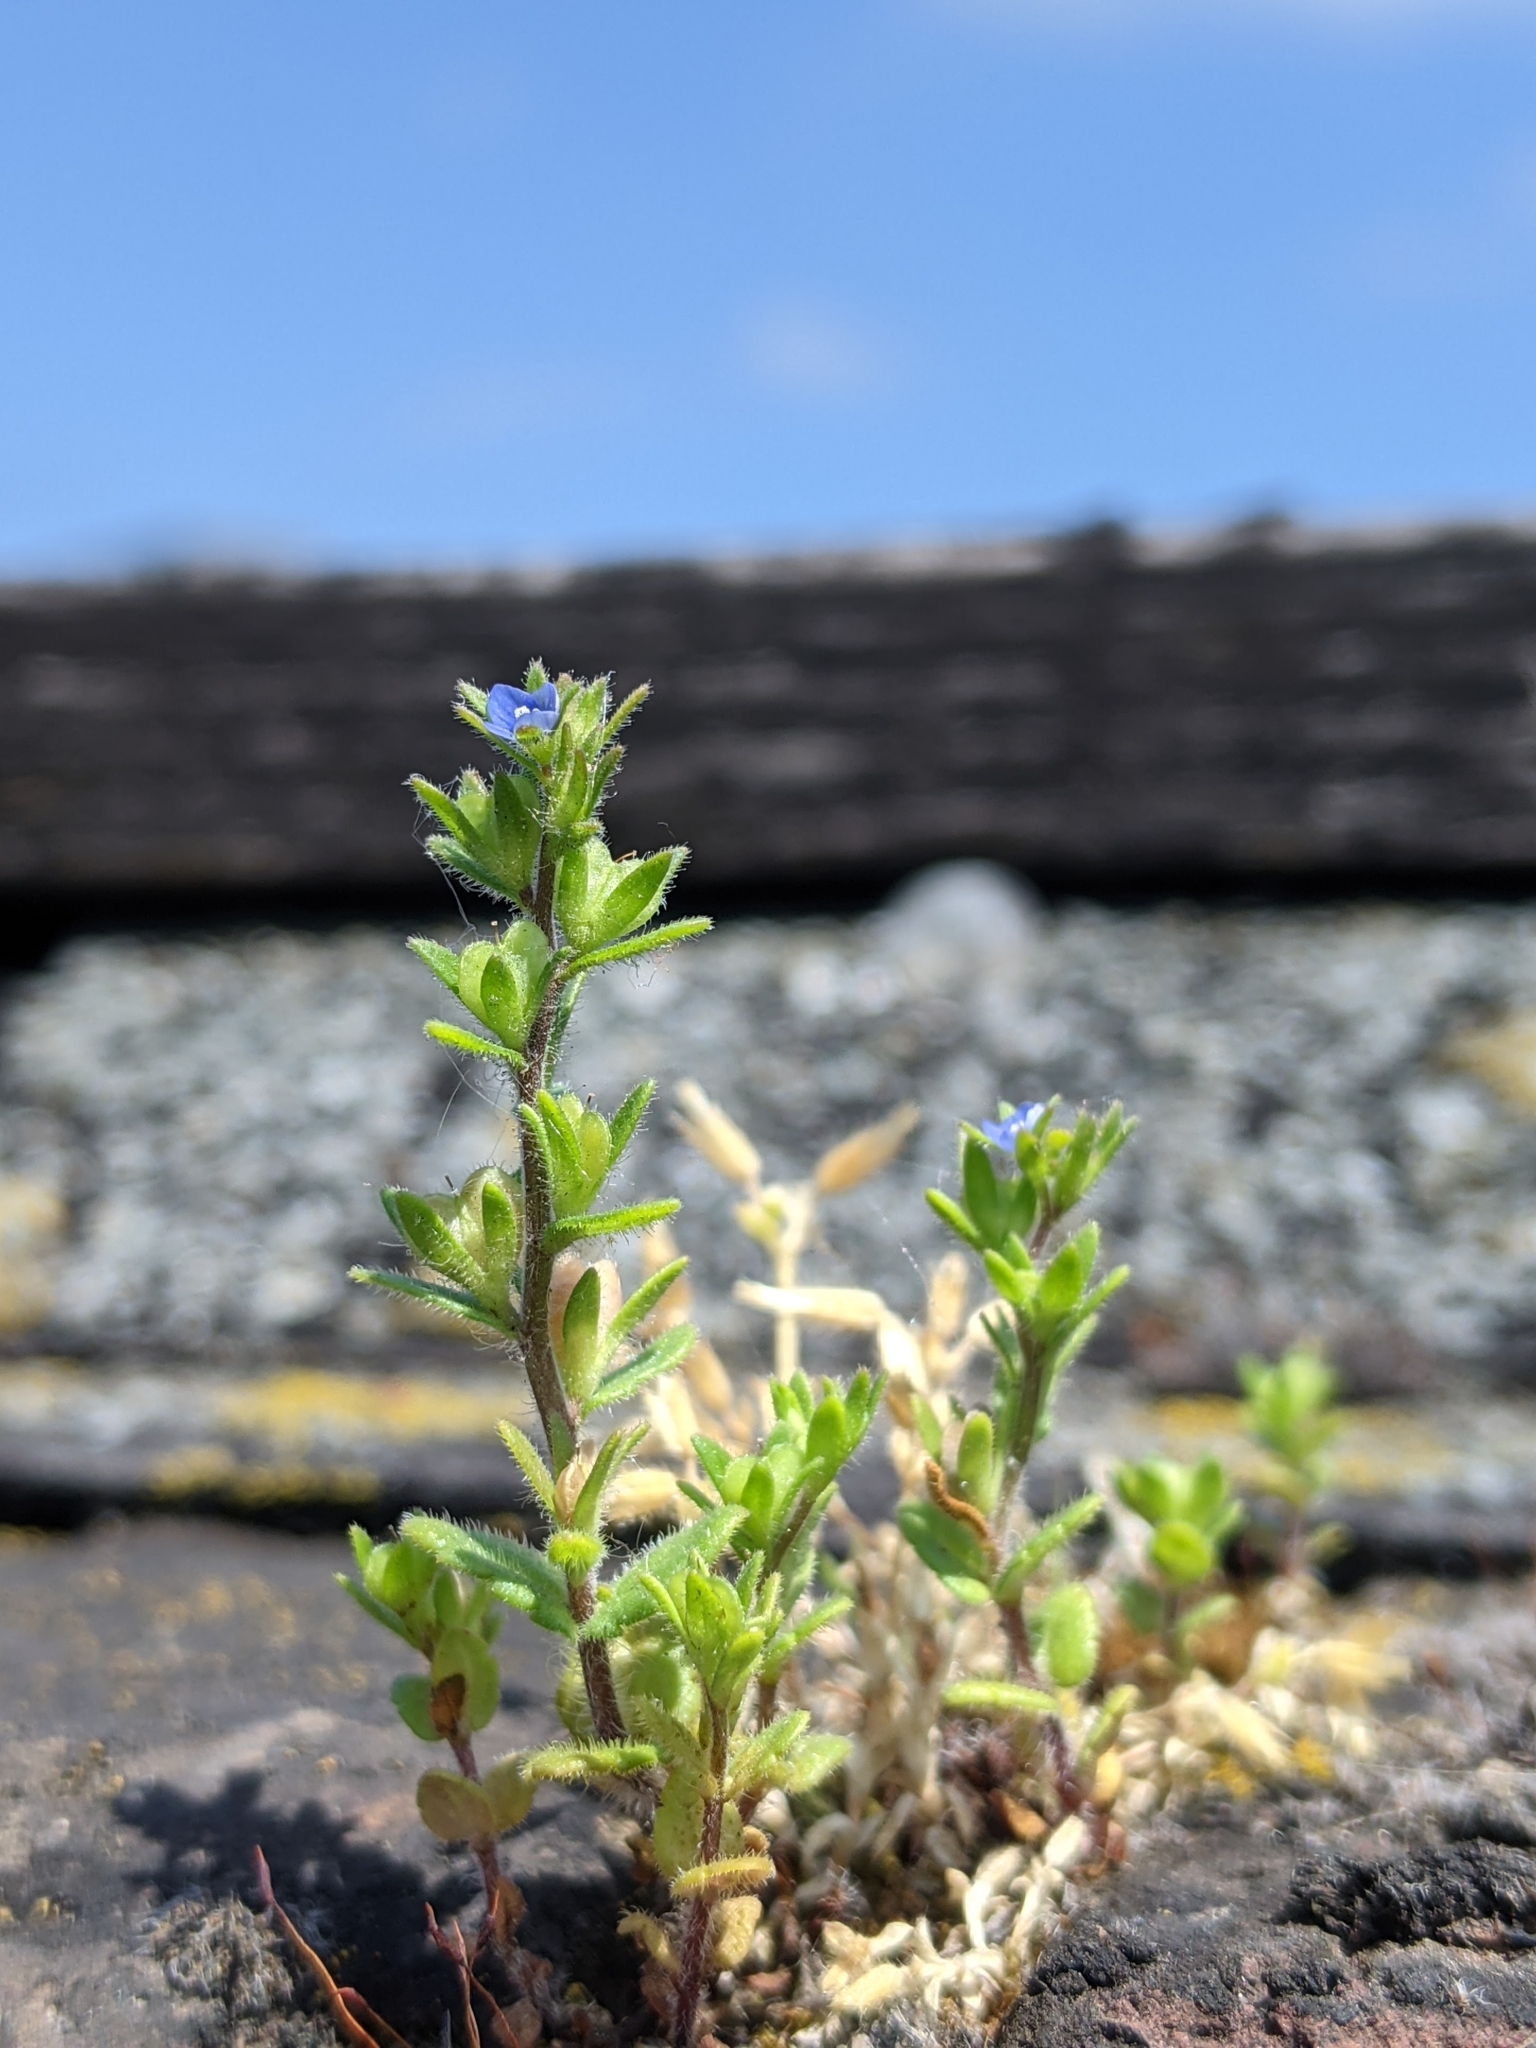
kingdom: Plantae
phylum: Tracheophyta
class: Magnoliopsida
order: Lamiales
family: Plantaginaceae
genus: Veronica
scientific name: Veronica arvensis
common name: Corn speedwell
